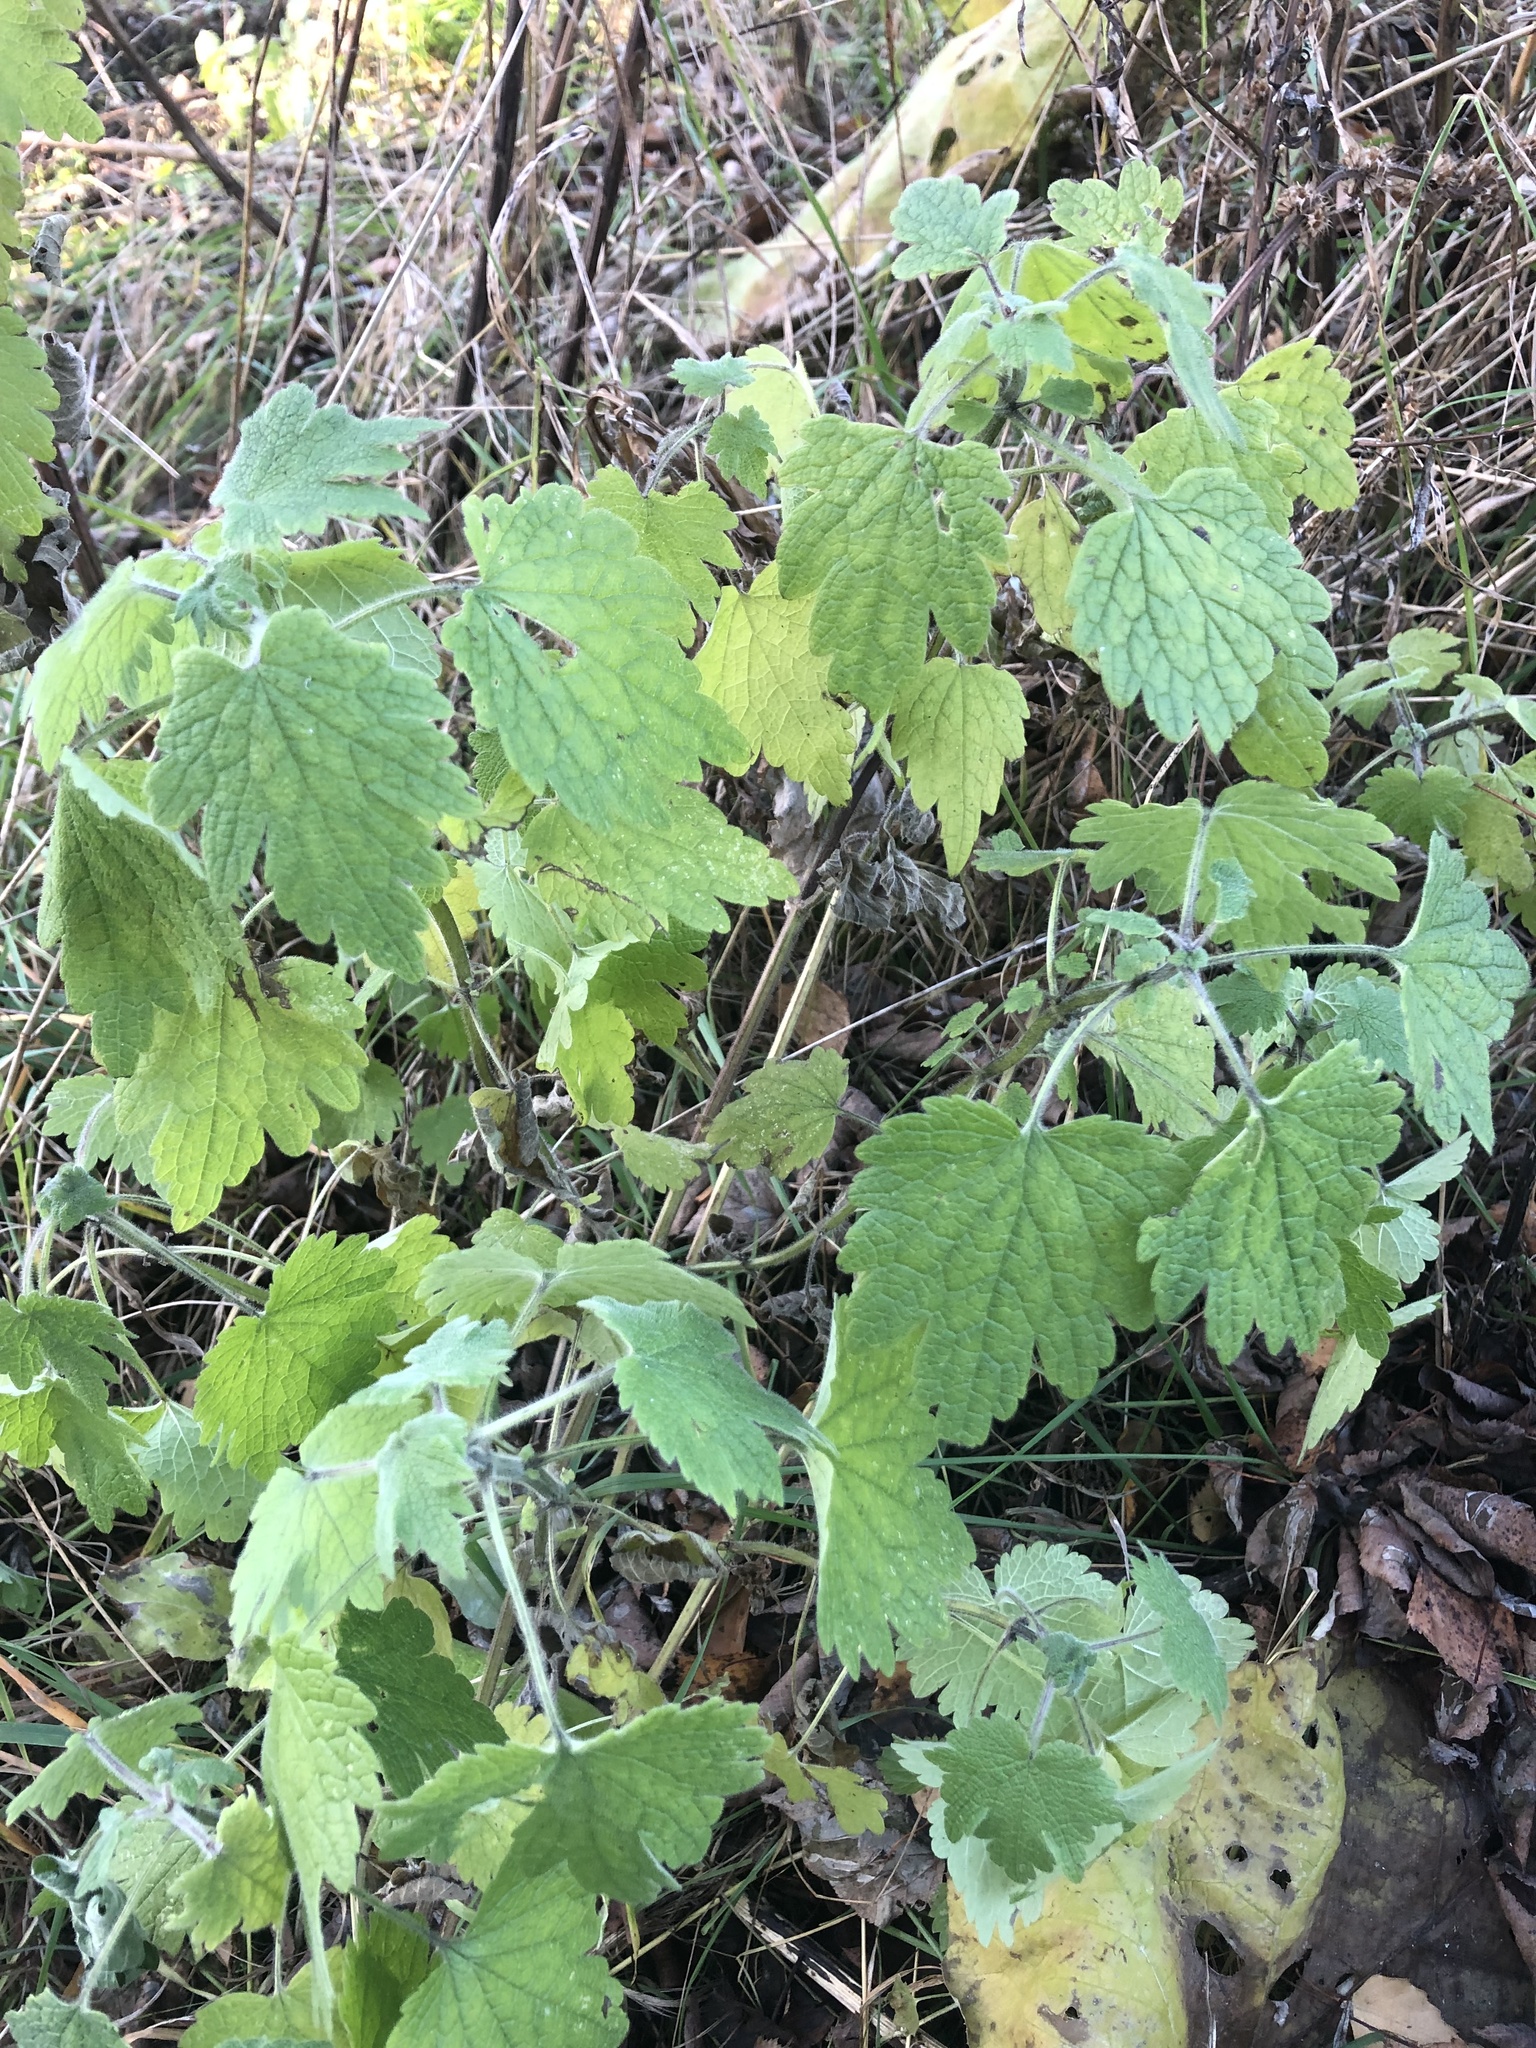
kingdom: Plantae
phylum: Tracheophyta
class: Magnoliopsida
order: Lamiales
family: Lamiaceae
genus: Leonurus
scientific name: Leonurus quinquelobatus
